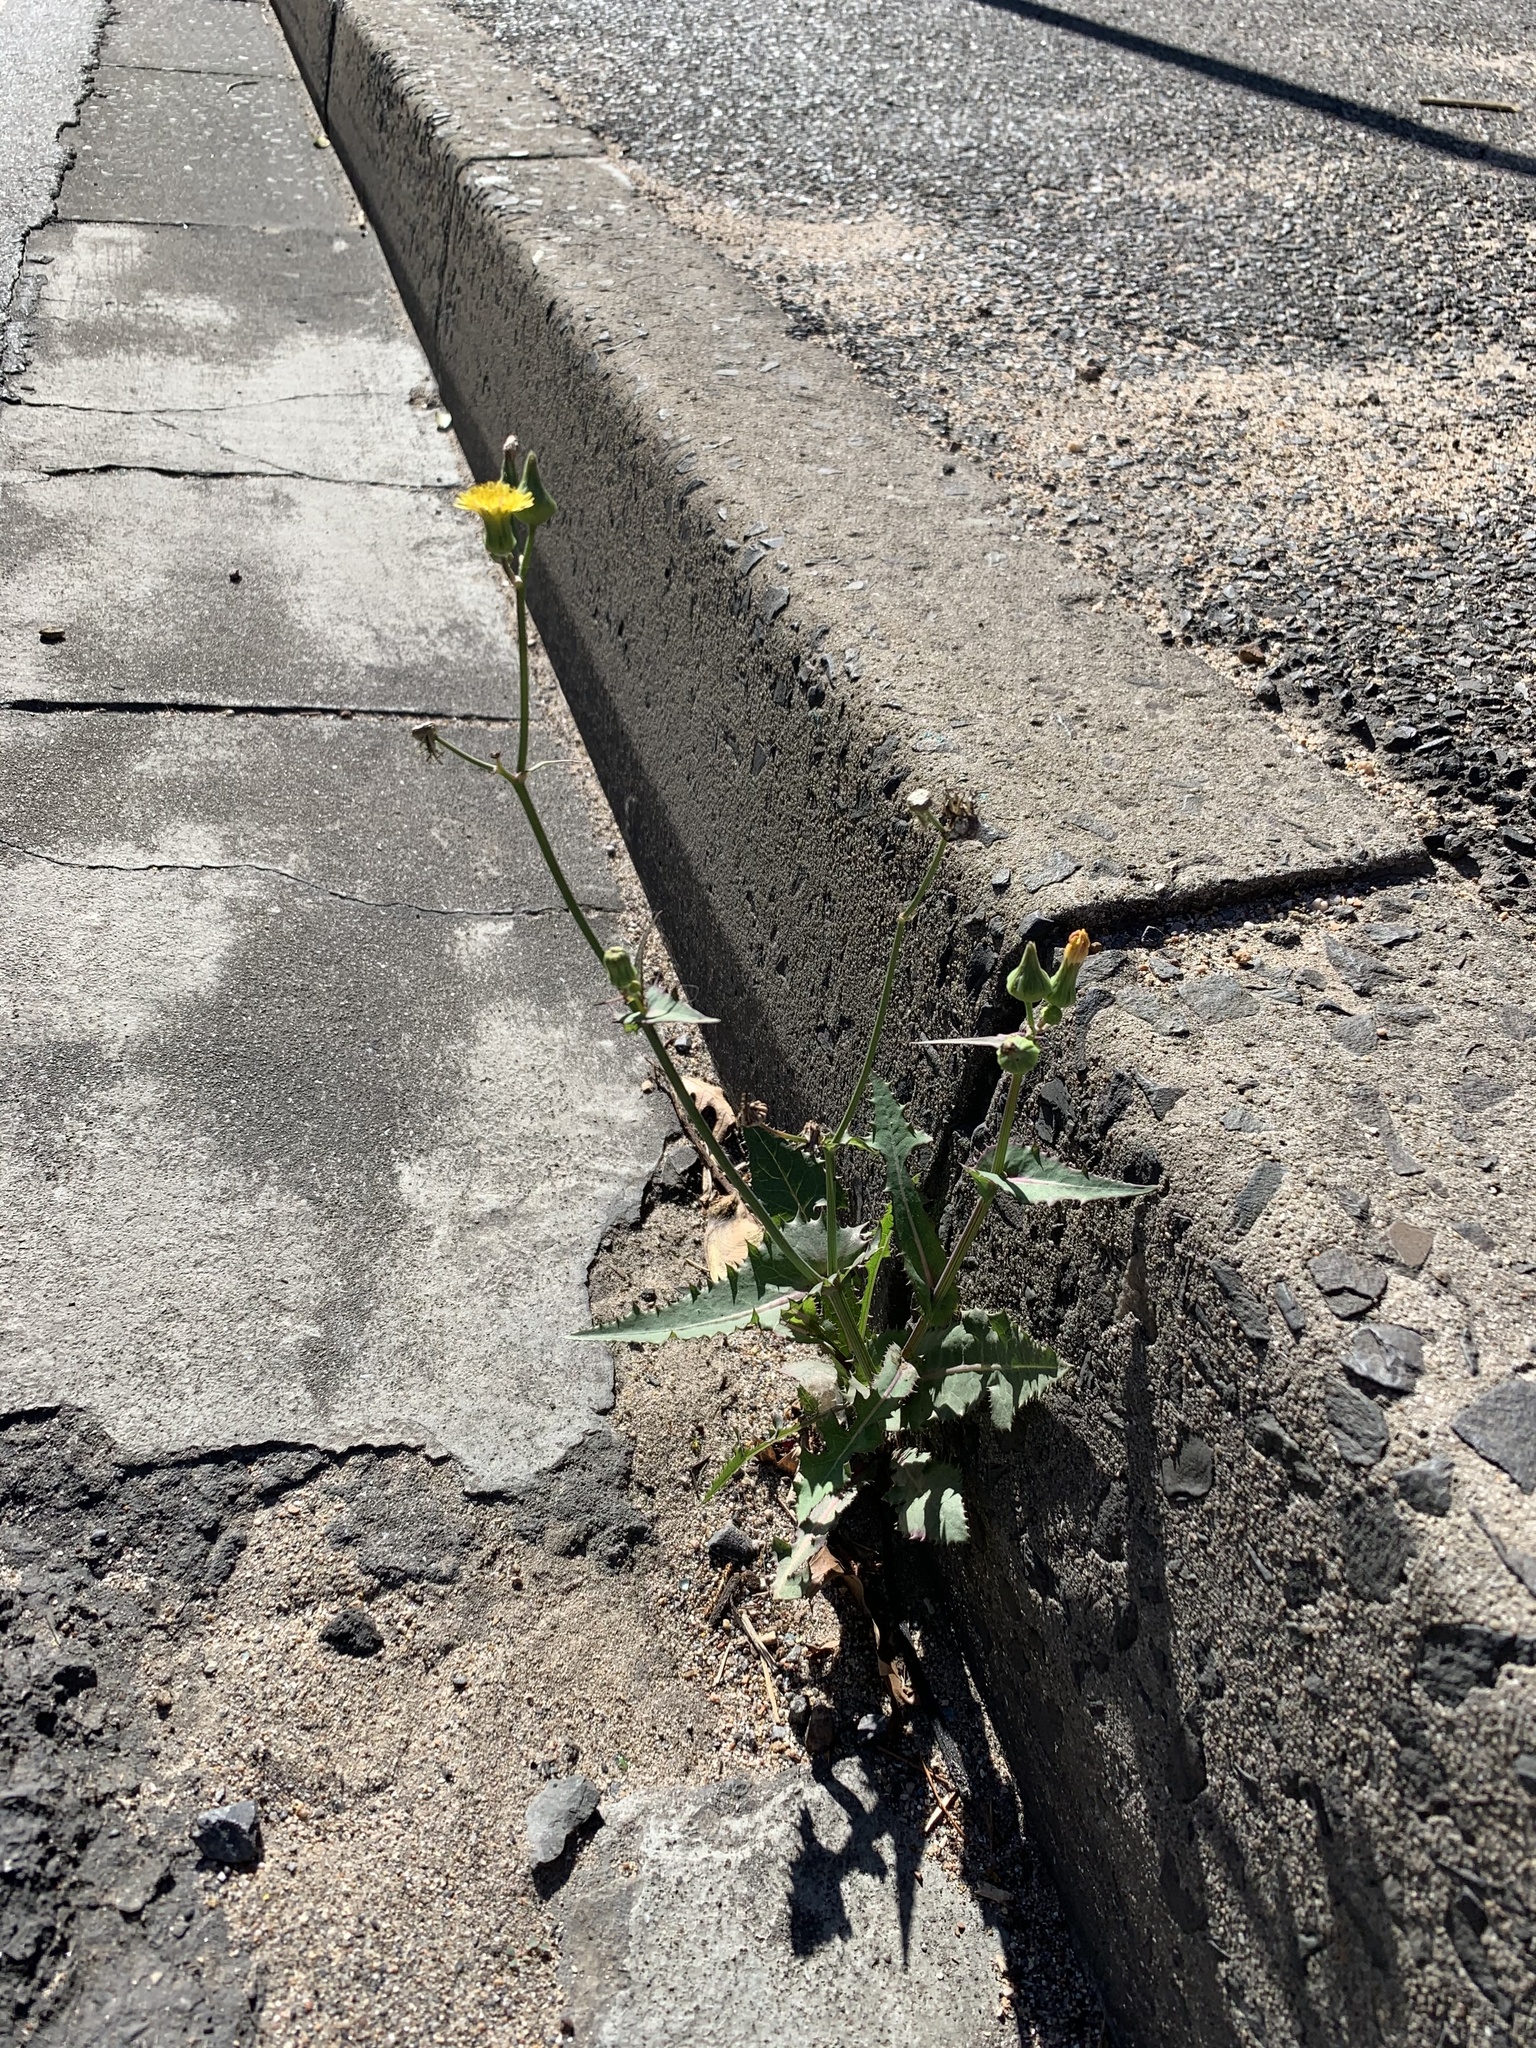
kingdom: Plantae
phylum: Tracheophyta
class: Magnoliopsida
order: Asterales
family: Asteraceae
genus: Sonchus
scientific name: Sonchus oleraceus
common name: Common sowthistle
